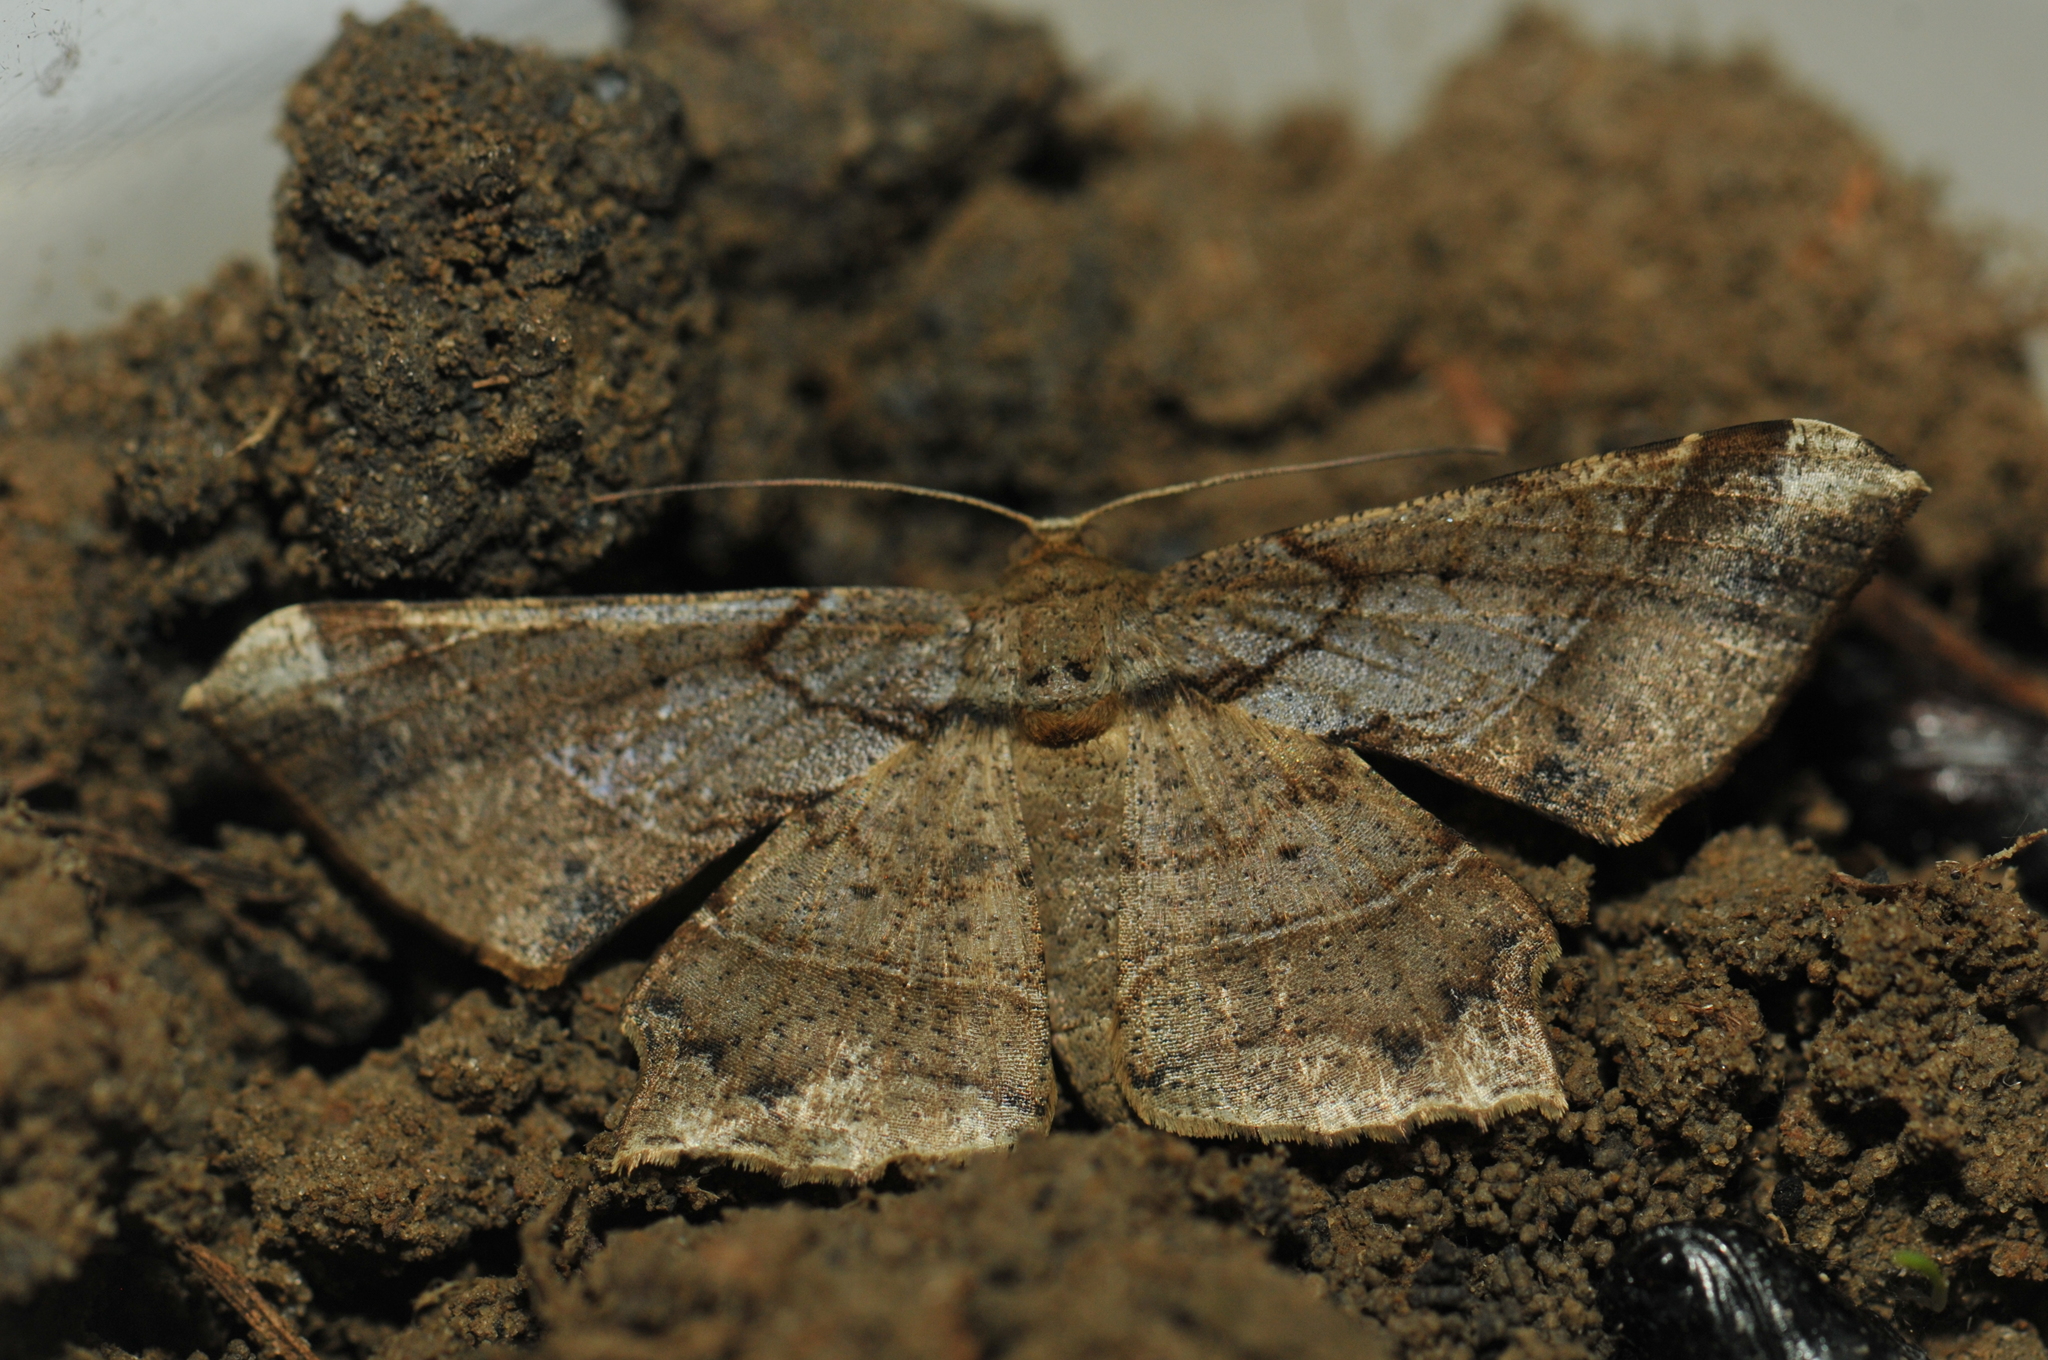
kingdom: Animalia
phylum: Arthropoda
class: Insecta
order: Lepidoptera
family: Geometridae
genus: Krananda
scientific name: Krananda latimarginaria
